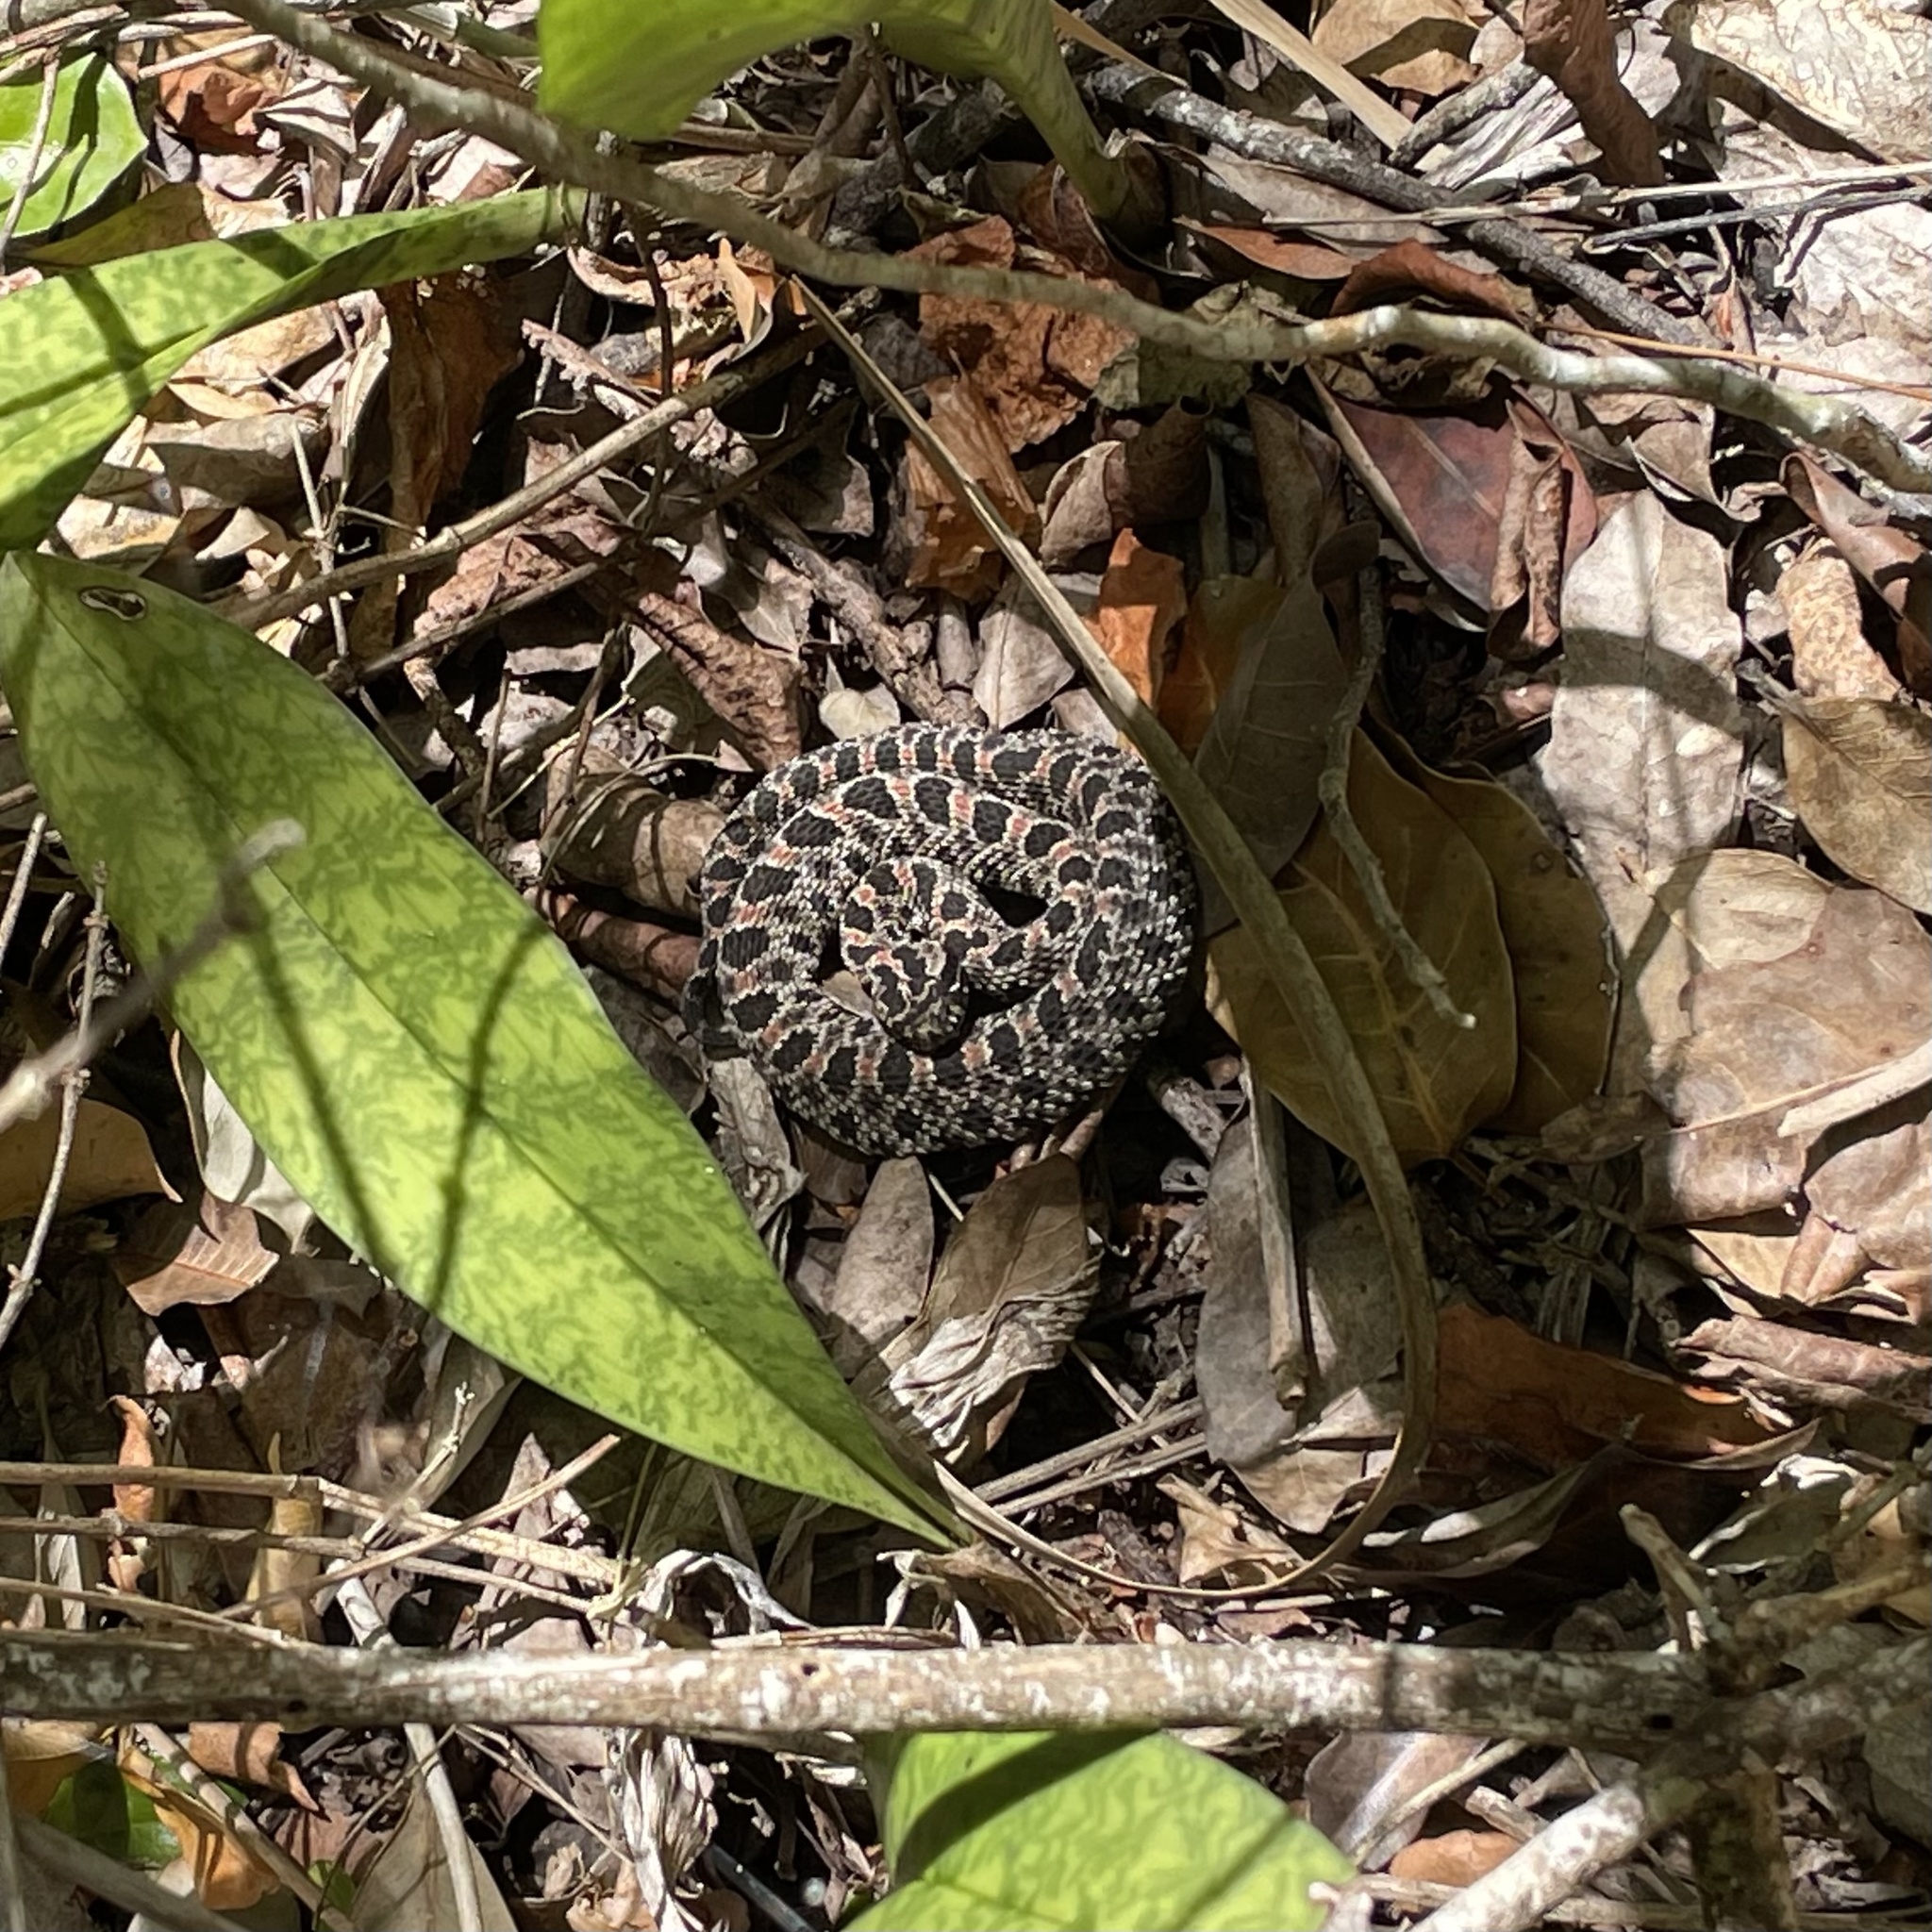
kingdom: Animalia
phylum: Chordata
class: Squamata
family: Viperidae
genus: Sistrurus
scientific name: Sistrurus miliarius
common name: Pygmy rattlesnake
